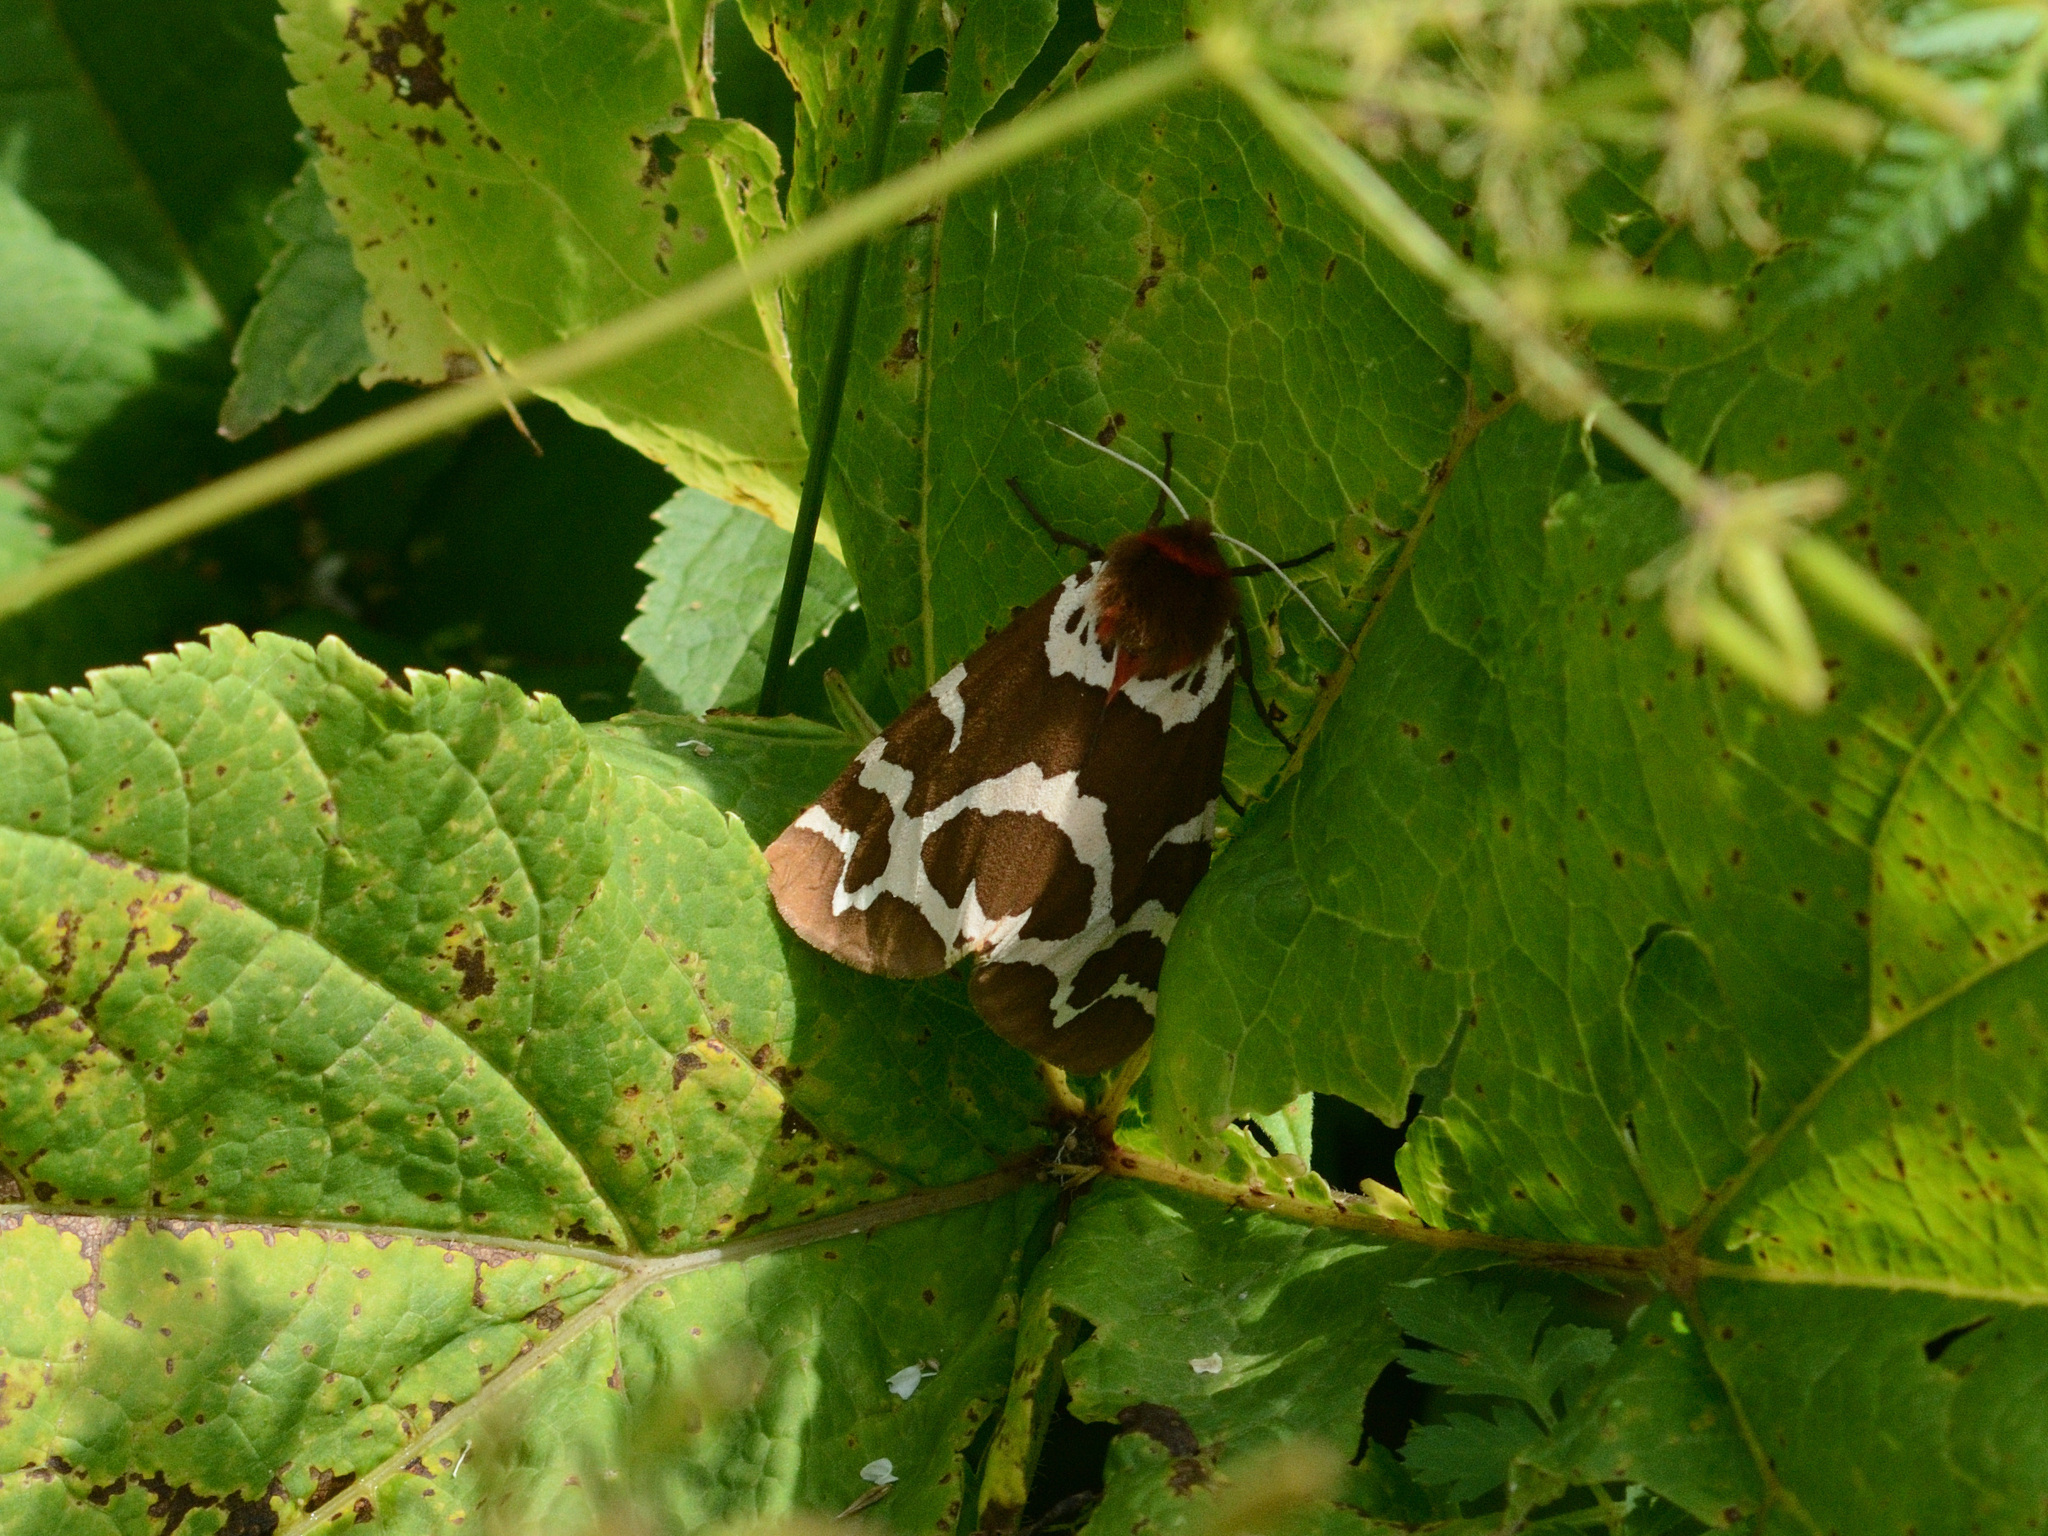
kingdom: Animalia
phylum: Arthropoda
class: Insecta
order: Lepidoptera
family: Erebidae
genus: Arctia
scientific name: Arctia caja
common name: Garden tiger
